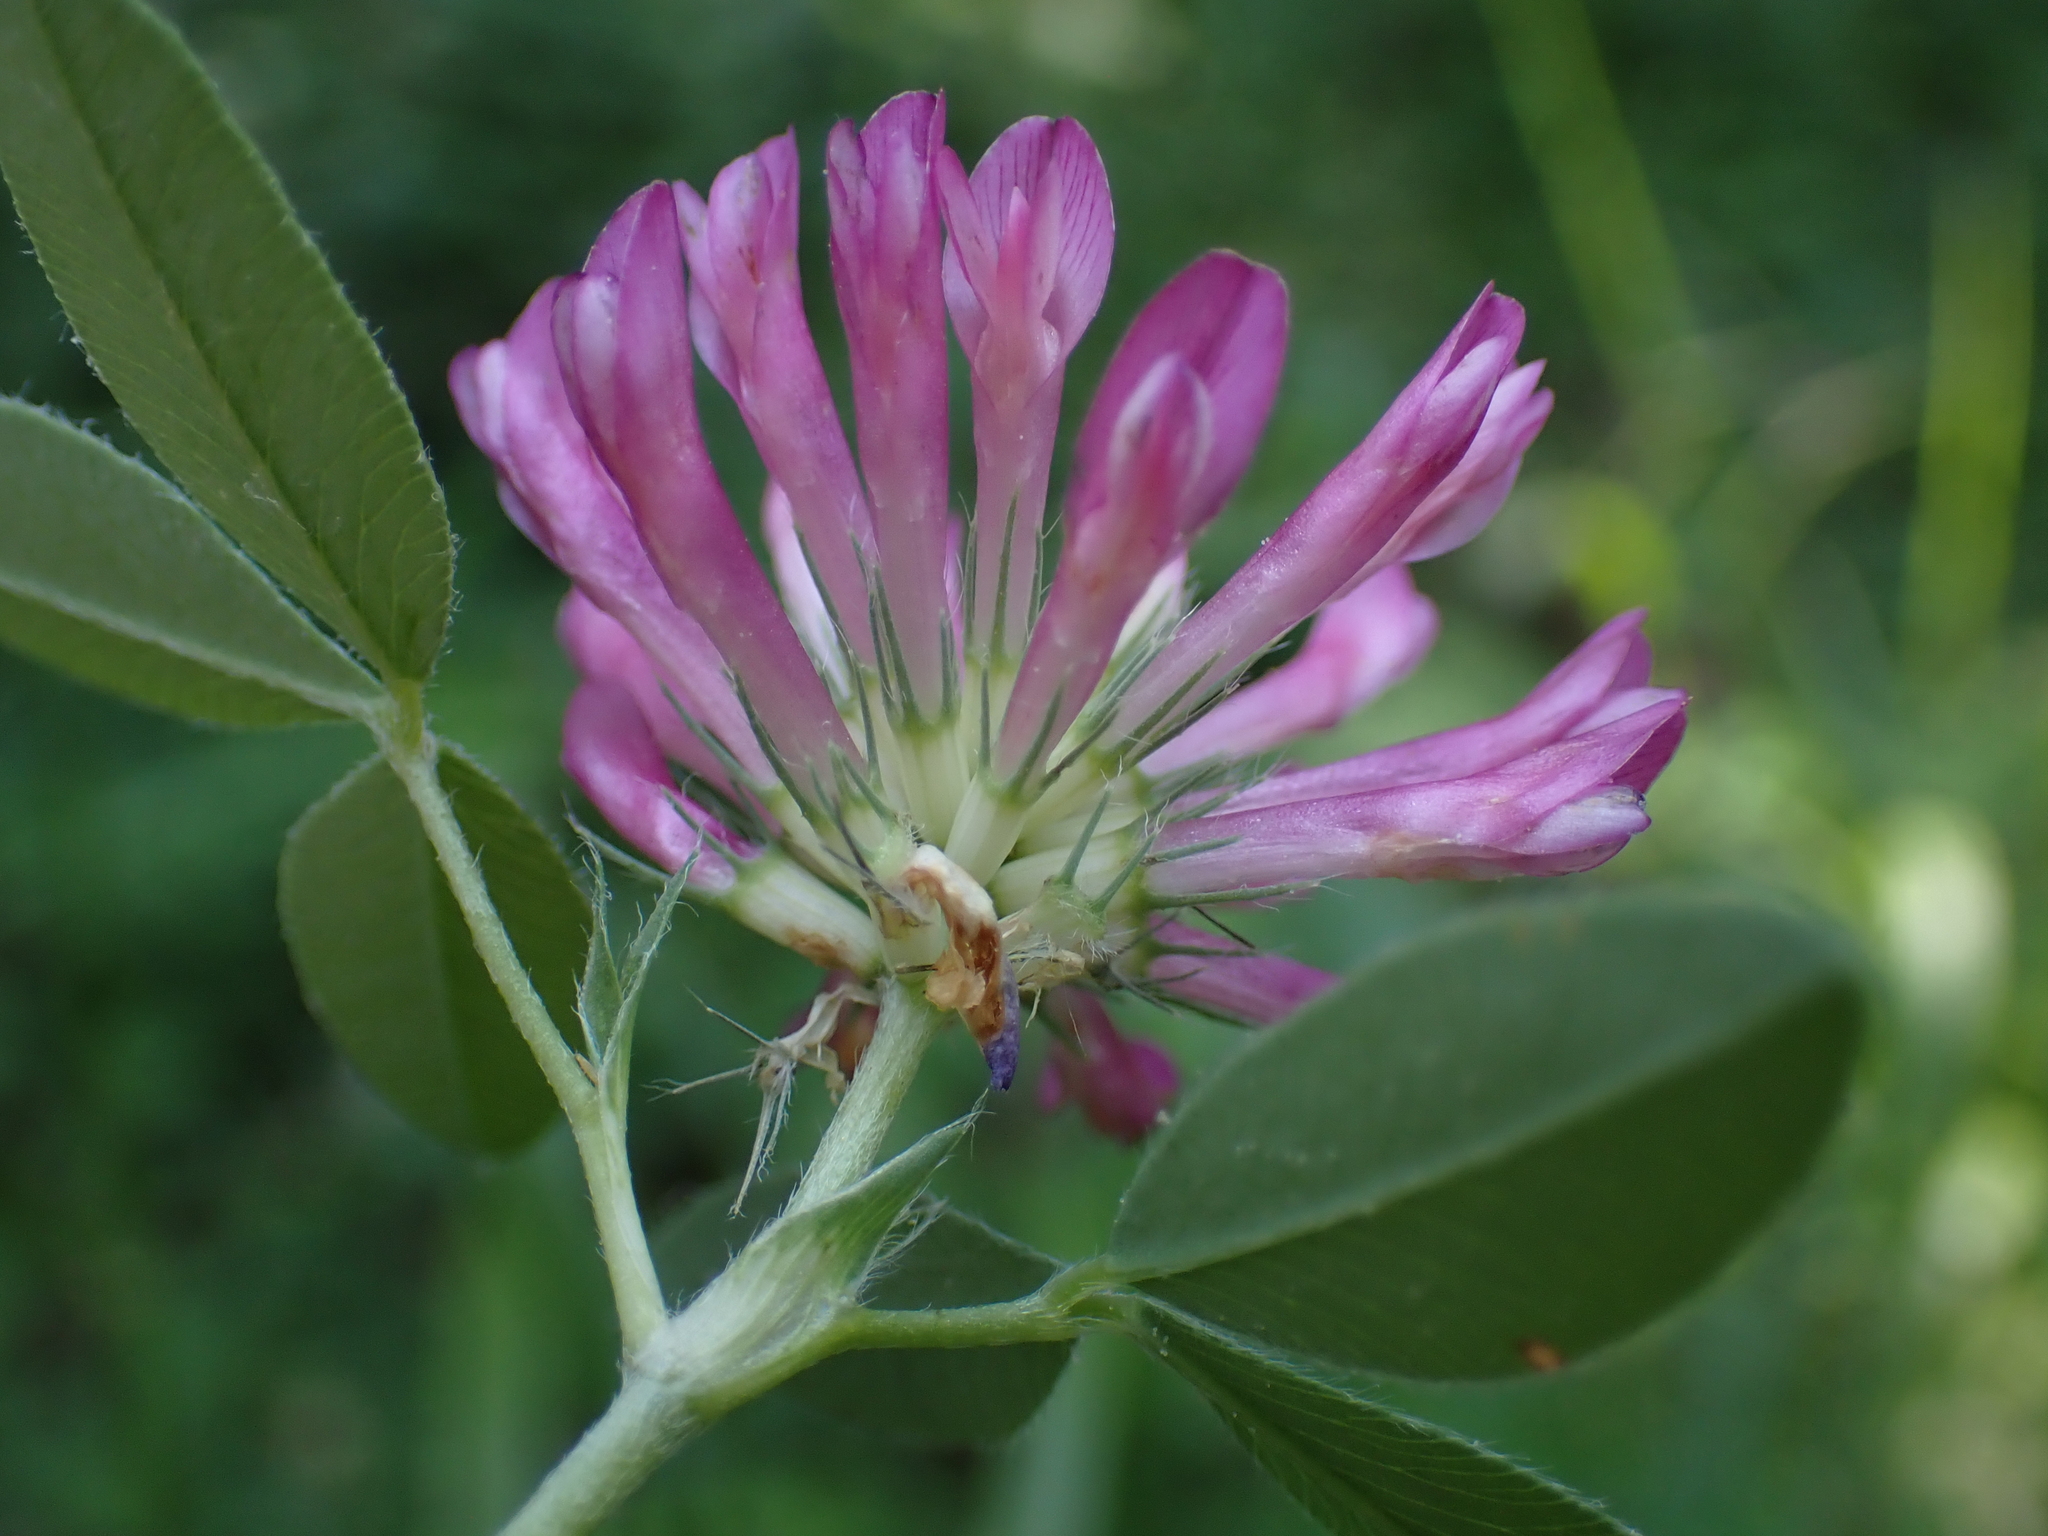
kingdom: Plantae
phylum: Tracheophyta
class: Magnoliopsida
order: Fabales
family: Fabaceae
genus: Trifolium
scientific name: Trifolium medium
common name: Zigzag clover
